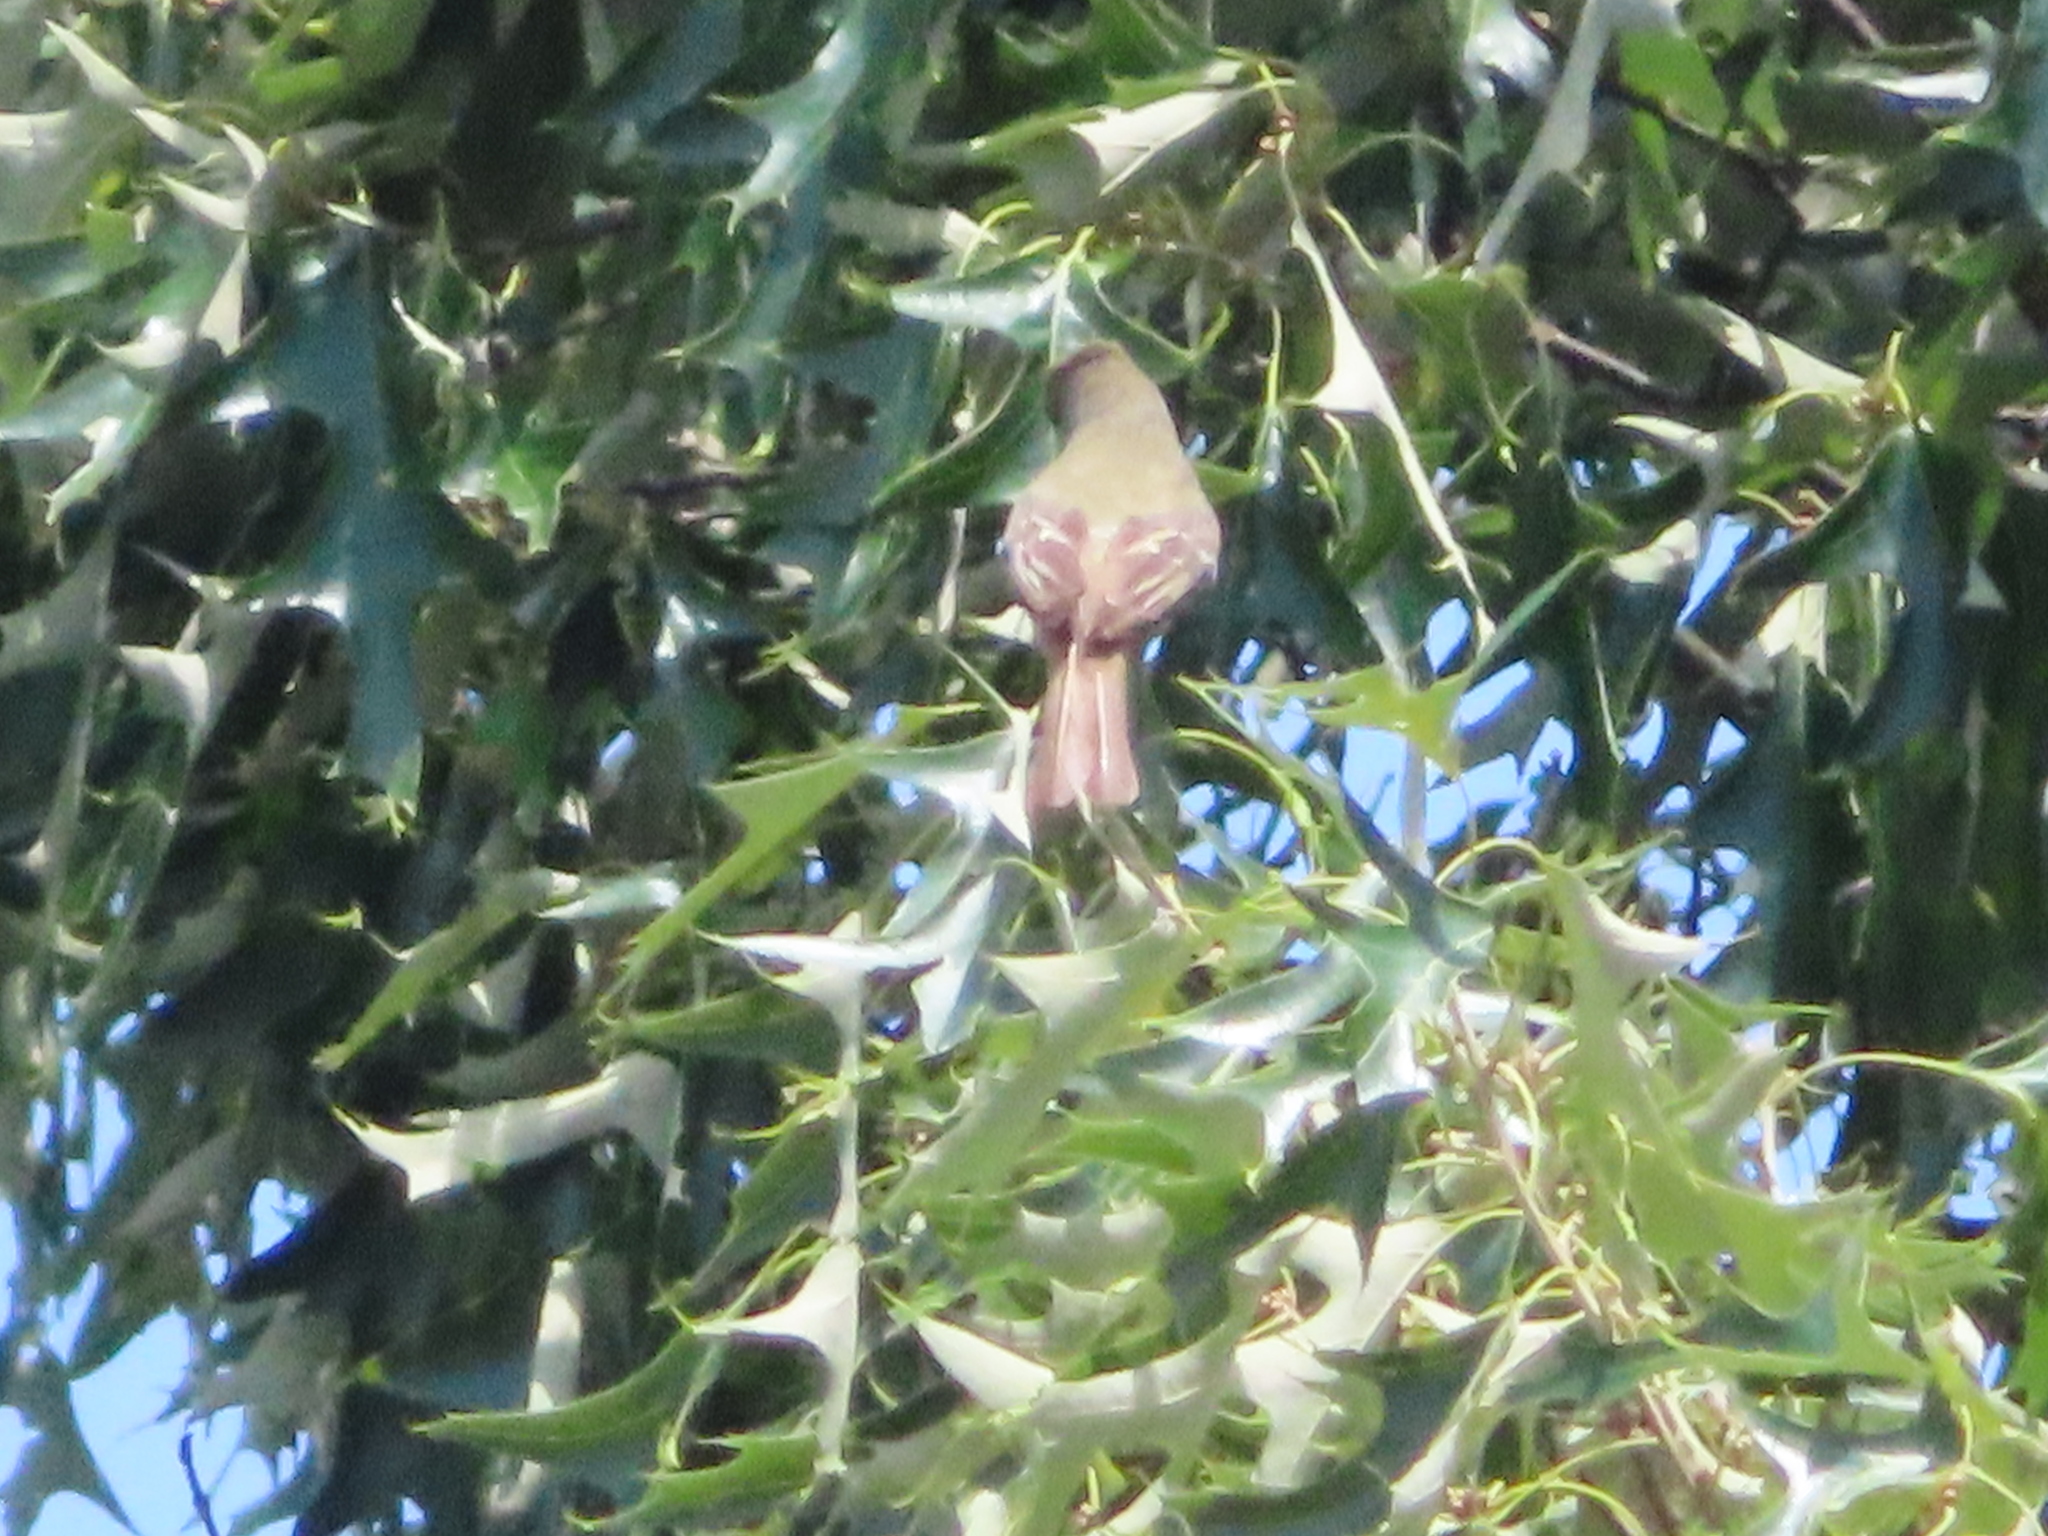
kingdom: Animalia
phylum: Chordata
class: Aves
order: Passeriformes
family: Tyrannidae
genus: Myiarchus
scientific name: Myiarchus crinitus
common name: Great crested flycatcher
